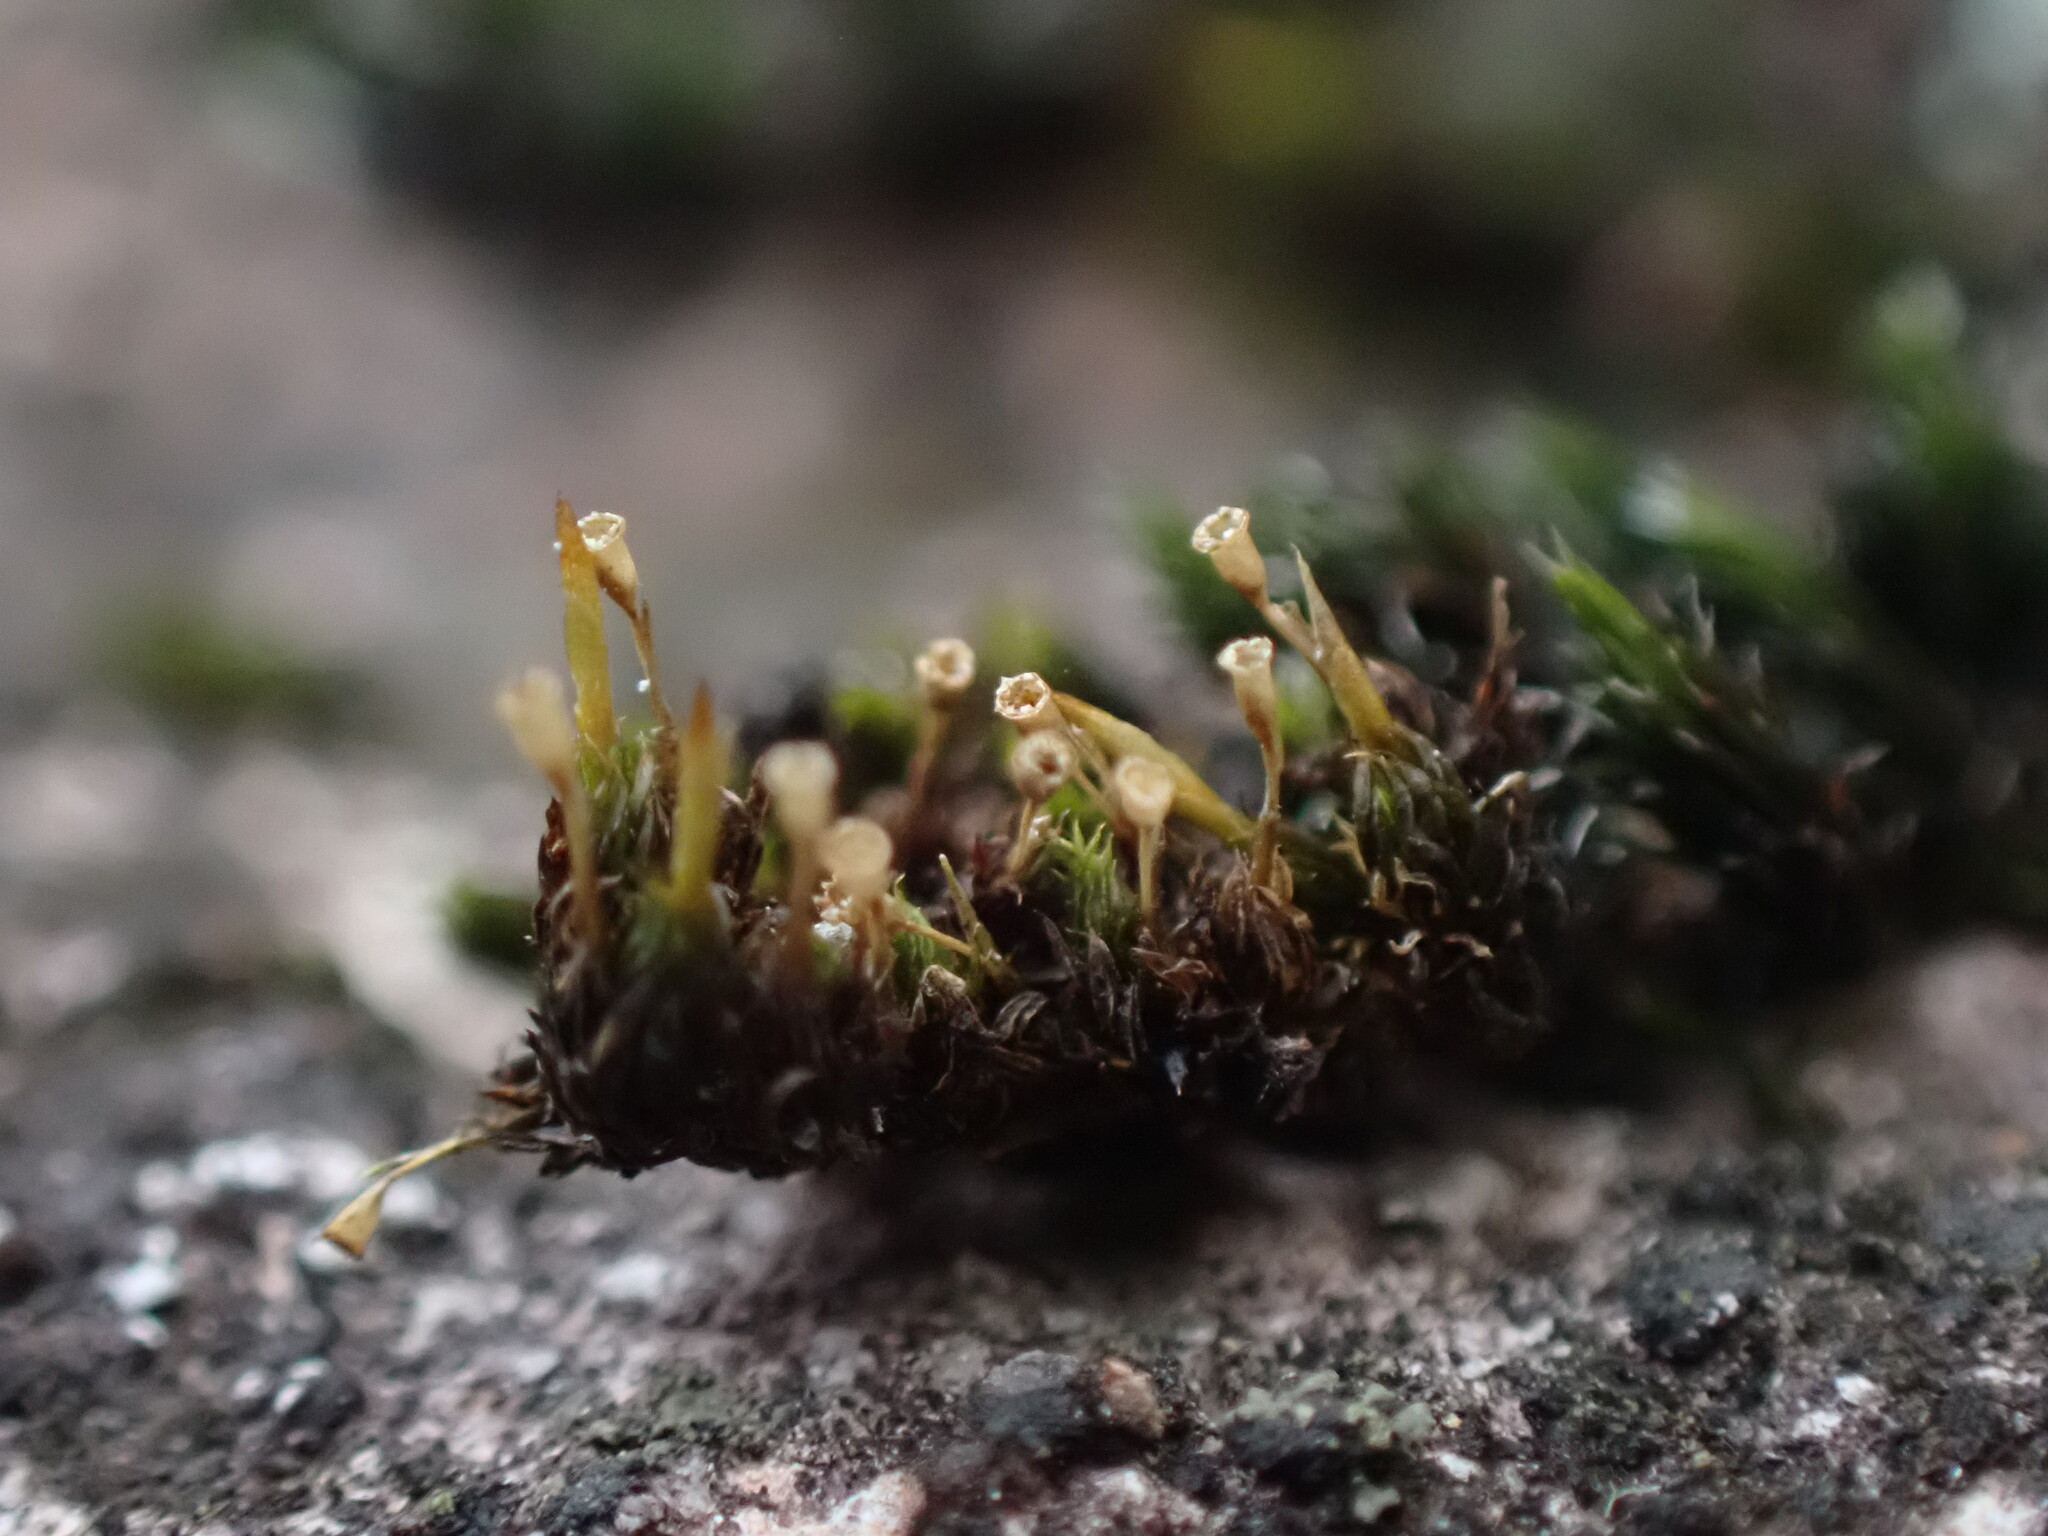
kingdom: Plantae
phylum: Bryophyta
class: Bryopsida
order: Dicranales
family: Rhabdoweisiaceae
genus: Glyphomitrium
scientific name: Glyphomitrium humillimum
